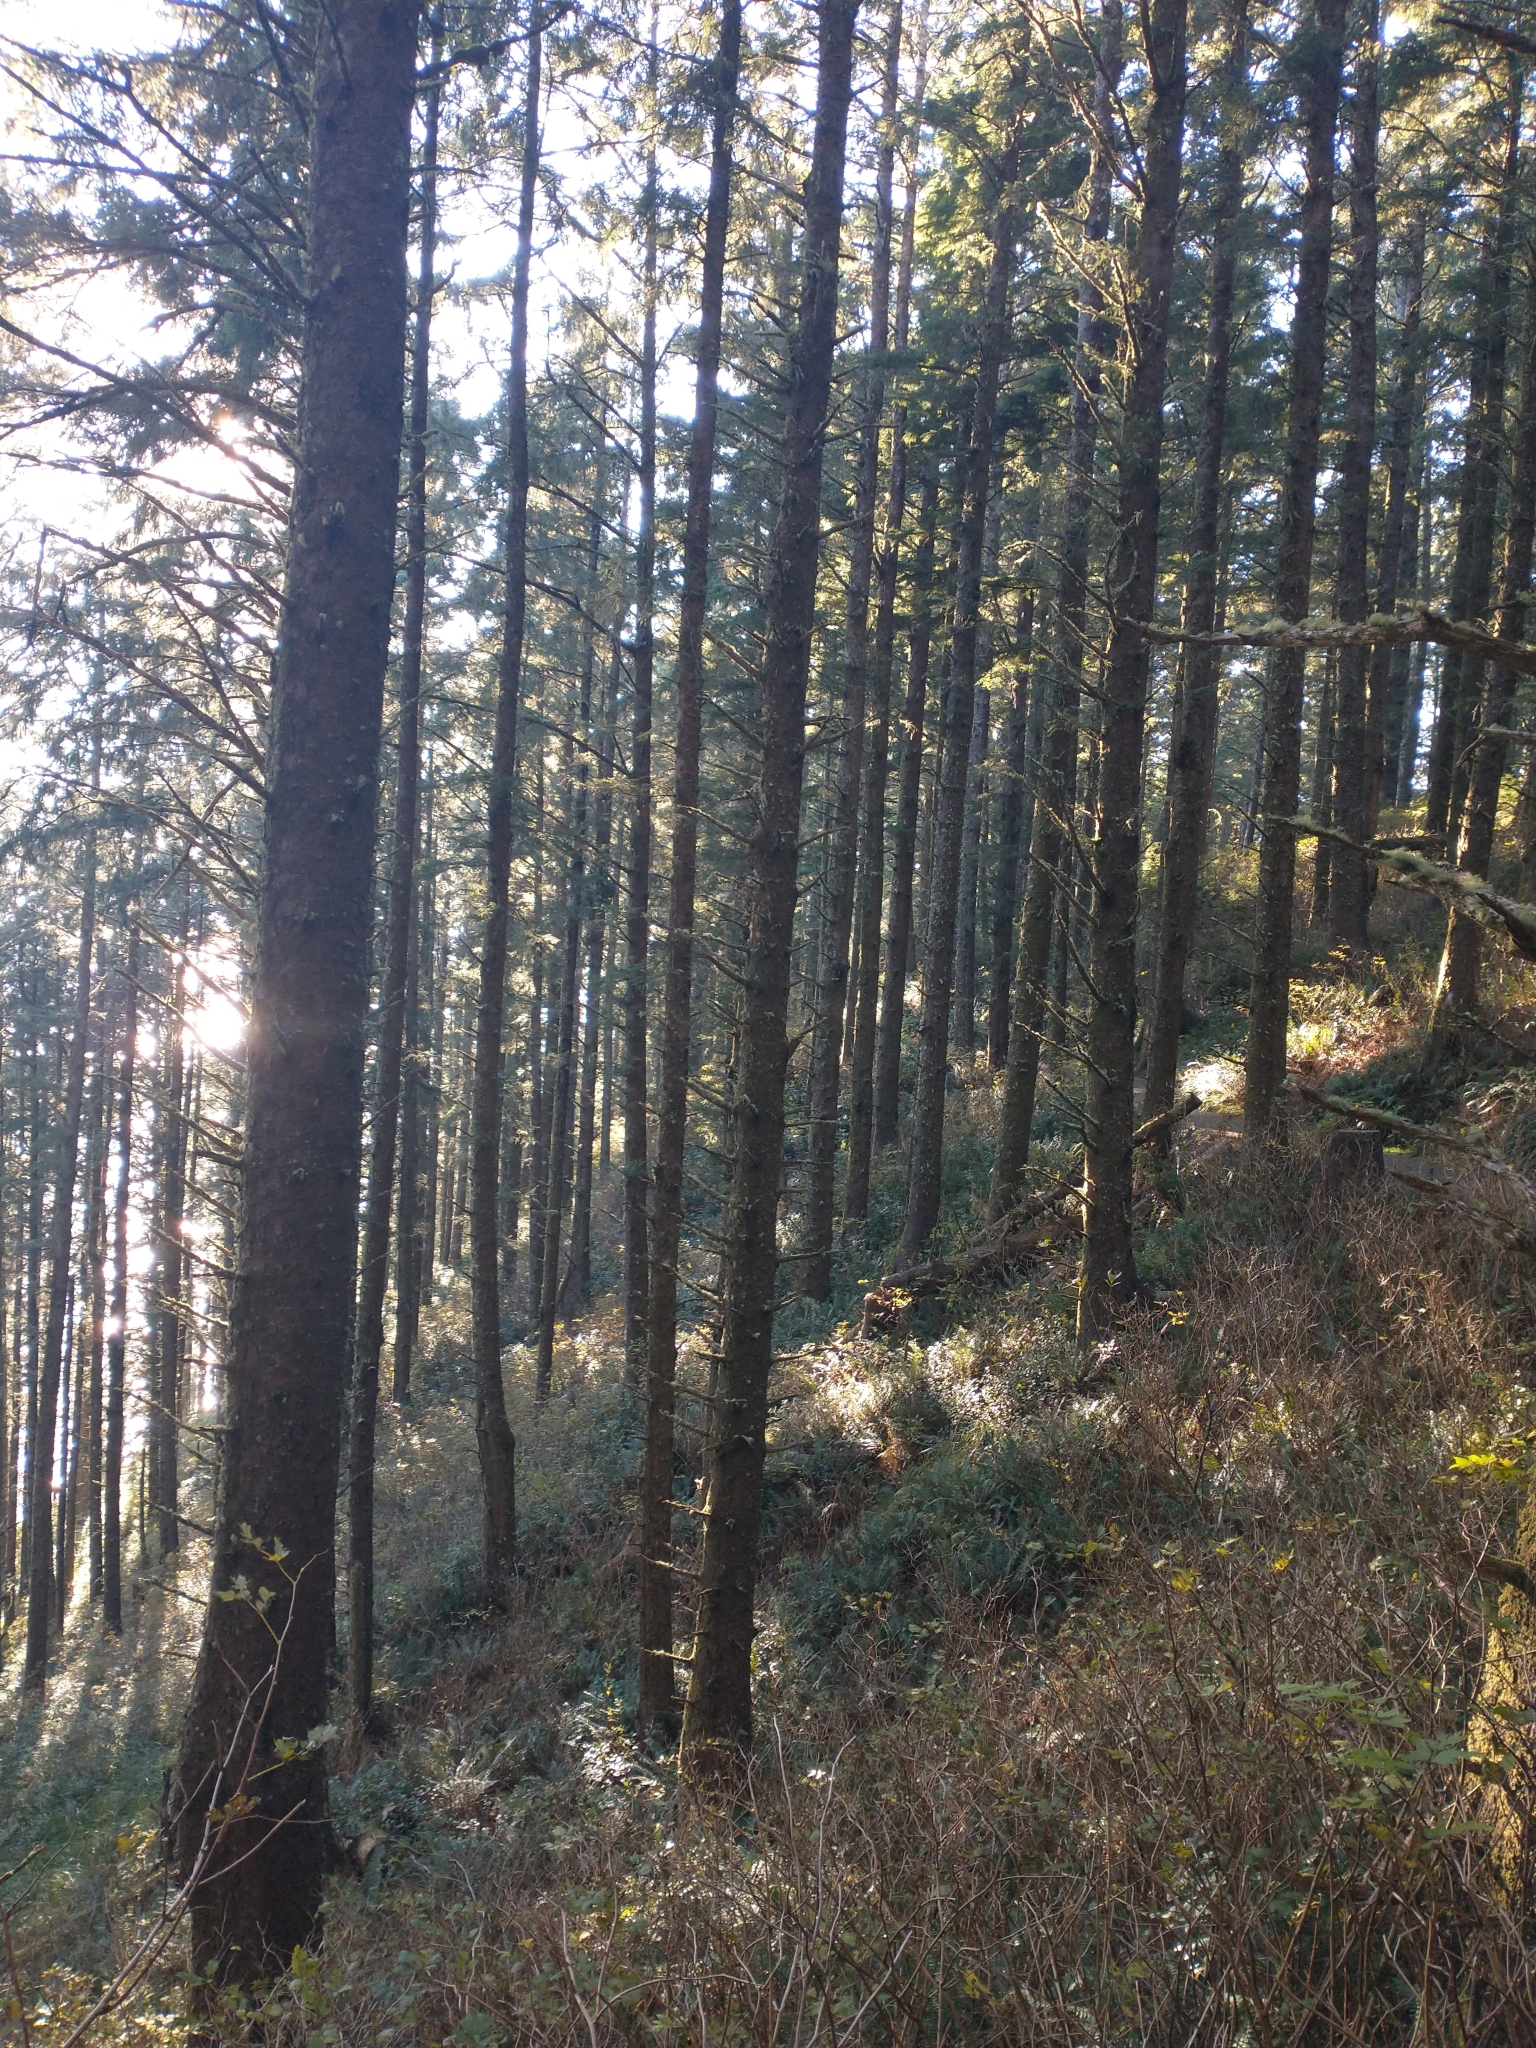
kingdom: Plantae
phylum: Tracheophyta
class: Pinopsida
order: Pinales
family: Pinaceae
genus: Picea
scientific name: Picea sitchensis
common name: Sitka spruce
